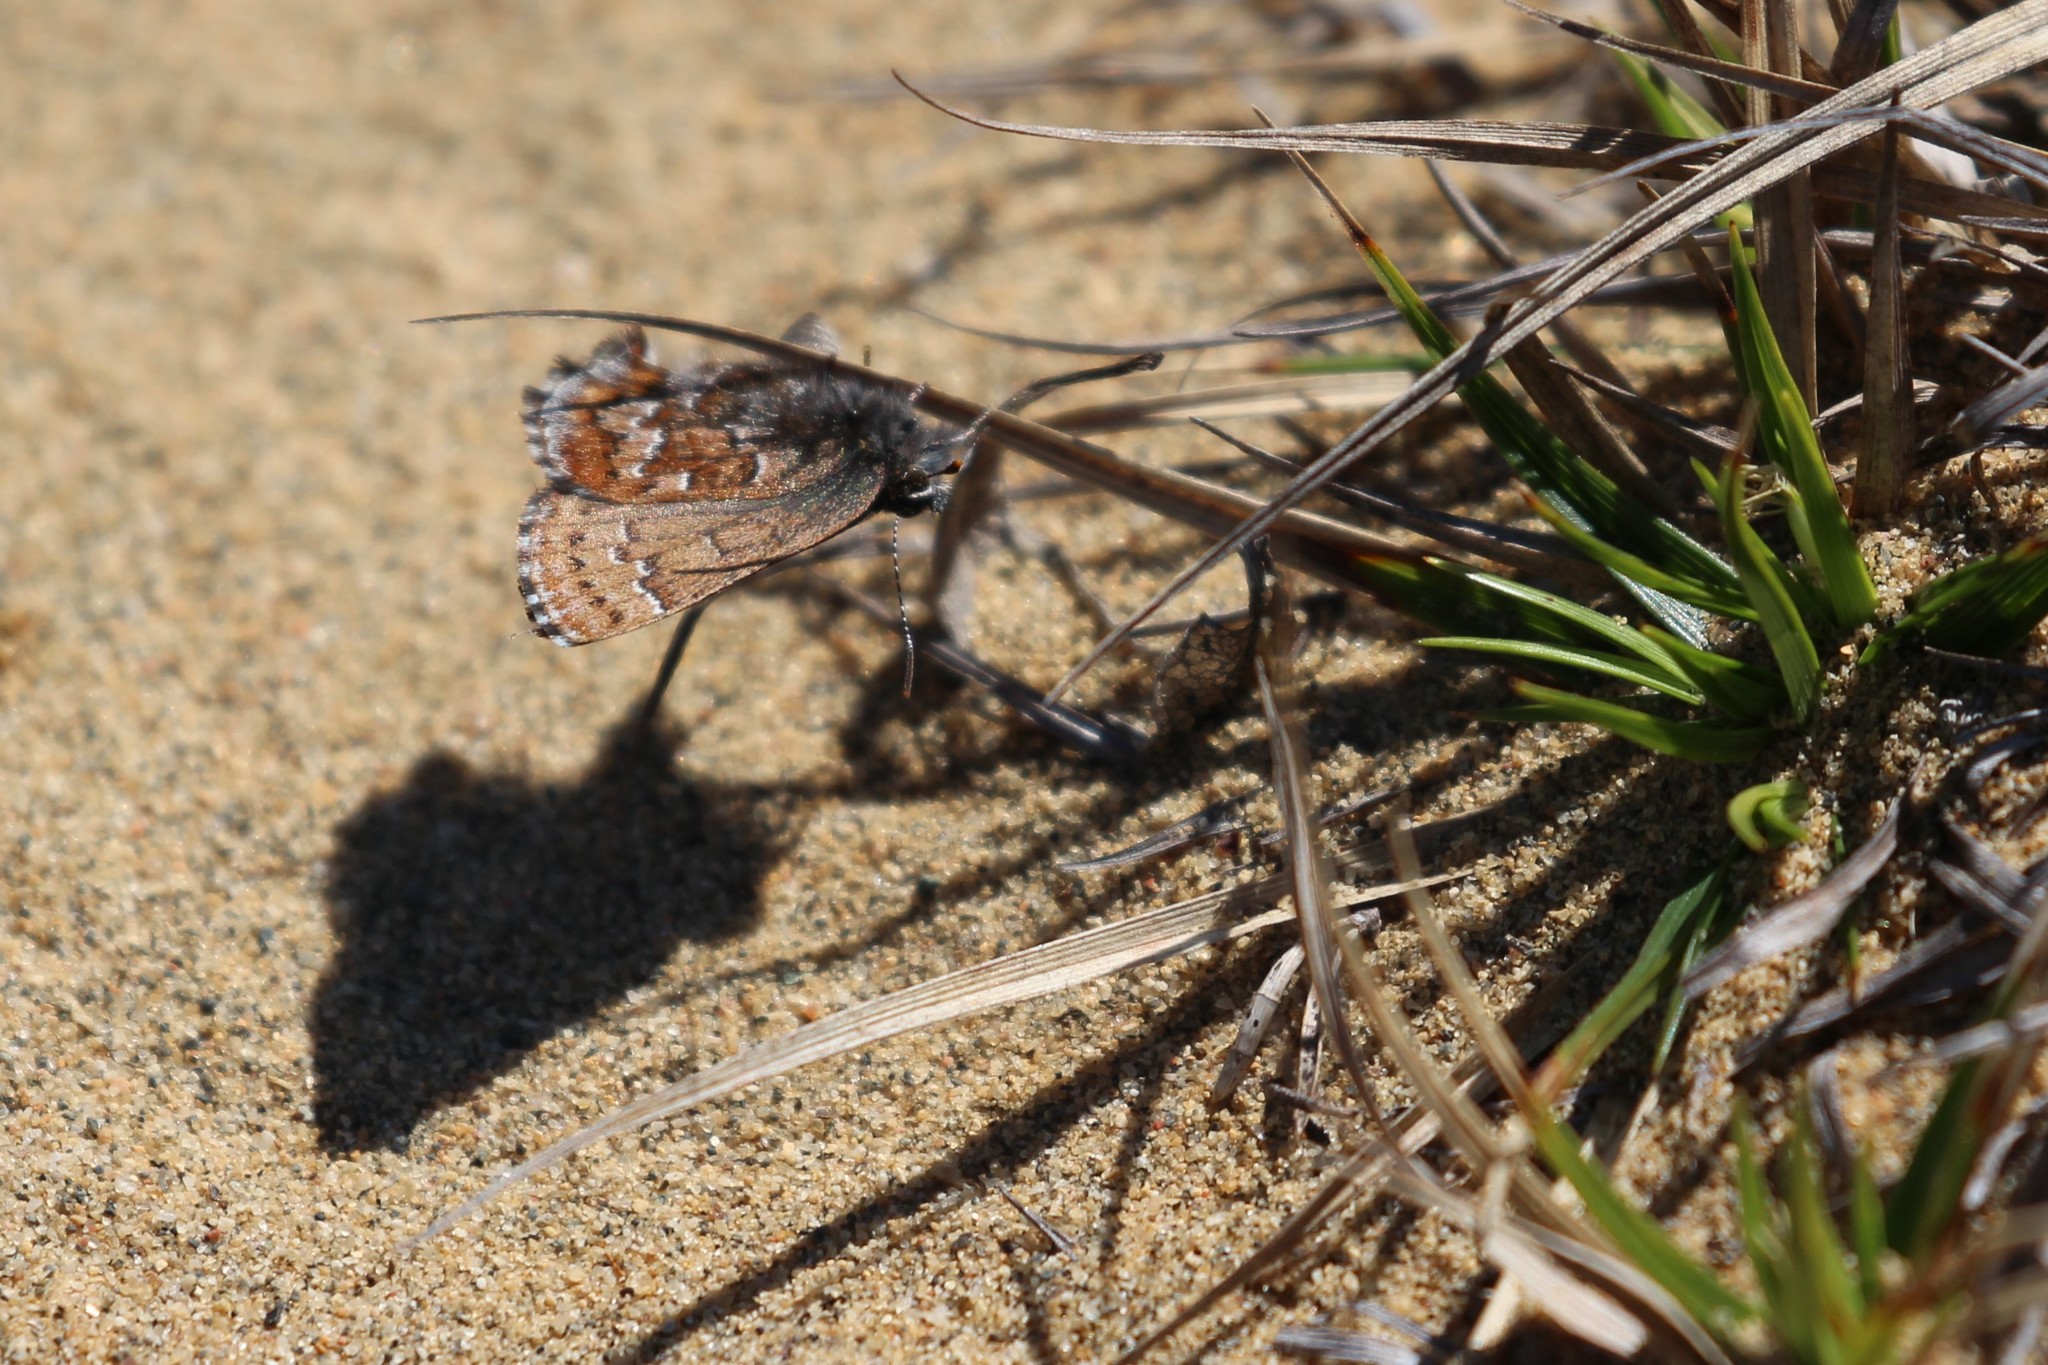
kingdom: Animalia
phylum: Arthropoda
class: Insecta
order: Lepidoptera
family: Lycaenidae
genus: Incisalia
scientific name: Incisalia niphon
